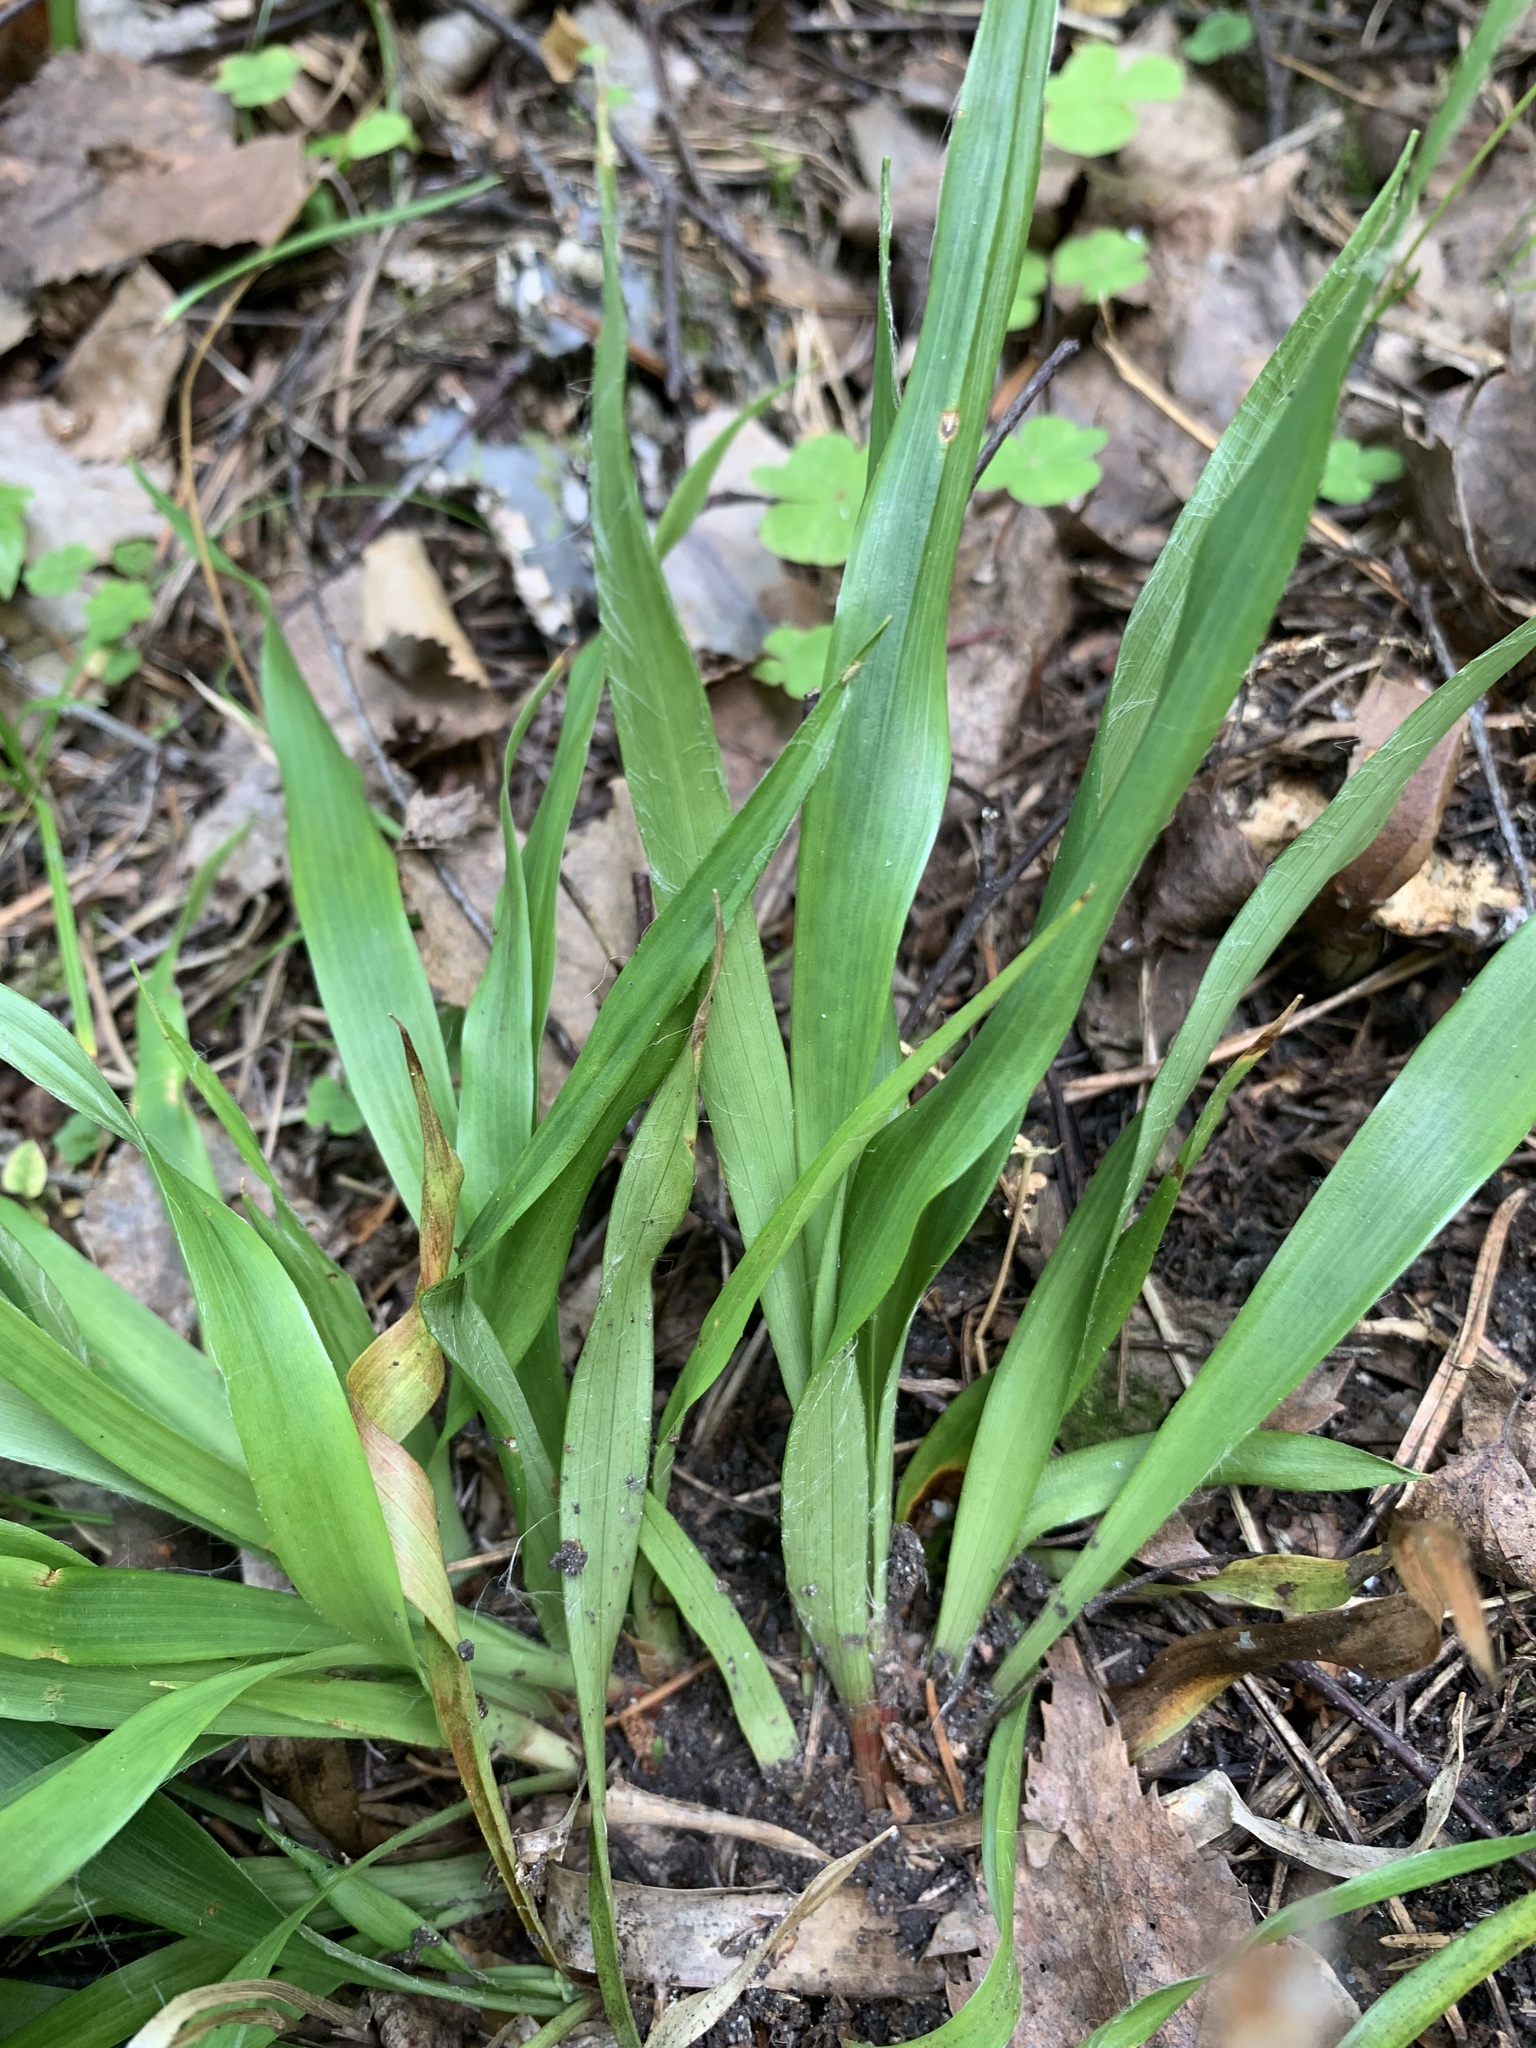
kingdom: Plantae
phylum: Tracheophyta
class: Liliopsida
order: Poales
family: Juncaceae
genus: Luzula
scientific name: Luzula pilosa
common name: Hairy wood-rush
